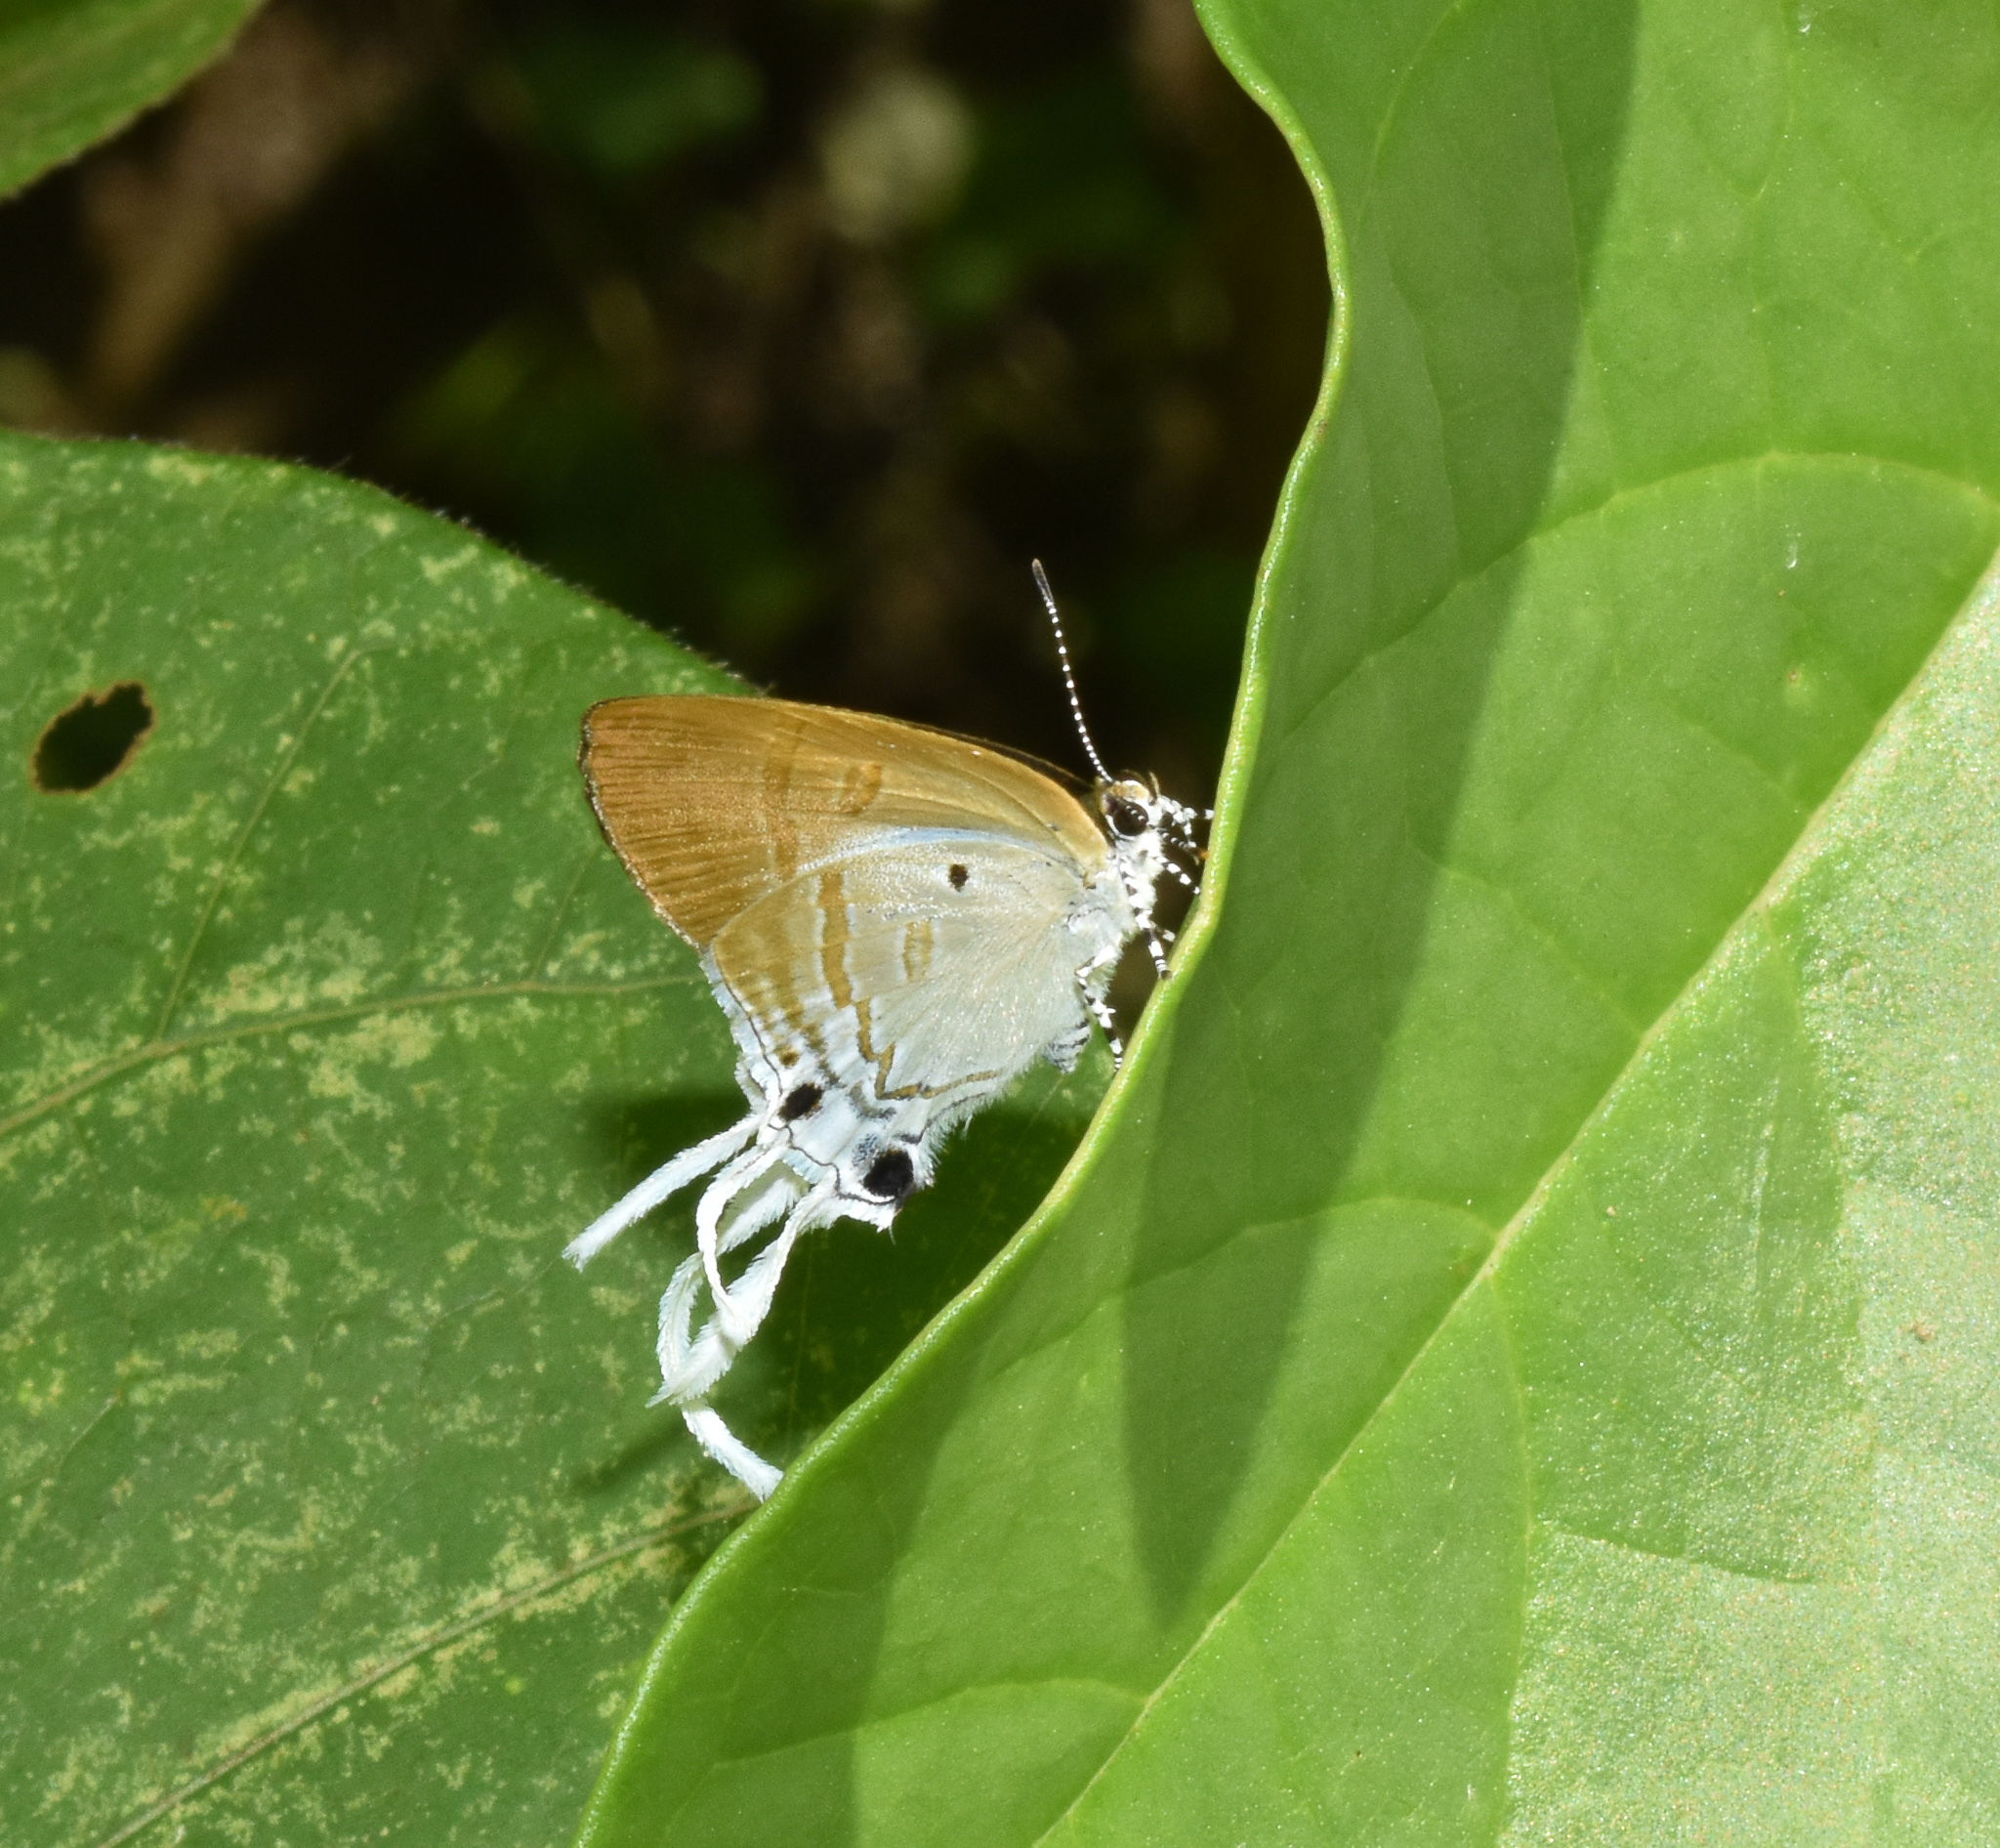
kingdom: Animalia
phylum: Arthropoda
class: Insecta
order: Lepidoptera
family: Lycaenidae
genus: Zeltus
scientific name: Zeltus amasa
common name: Fluffy tit
